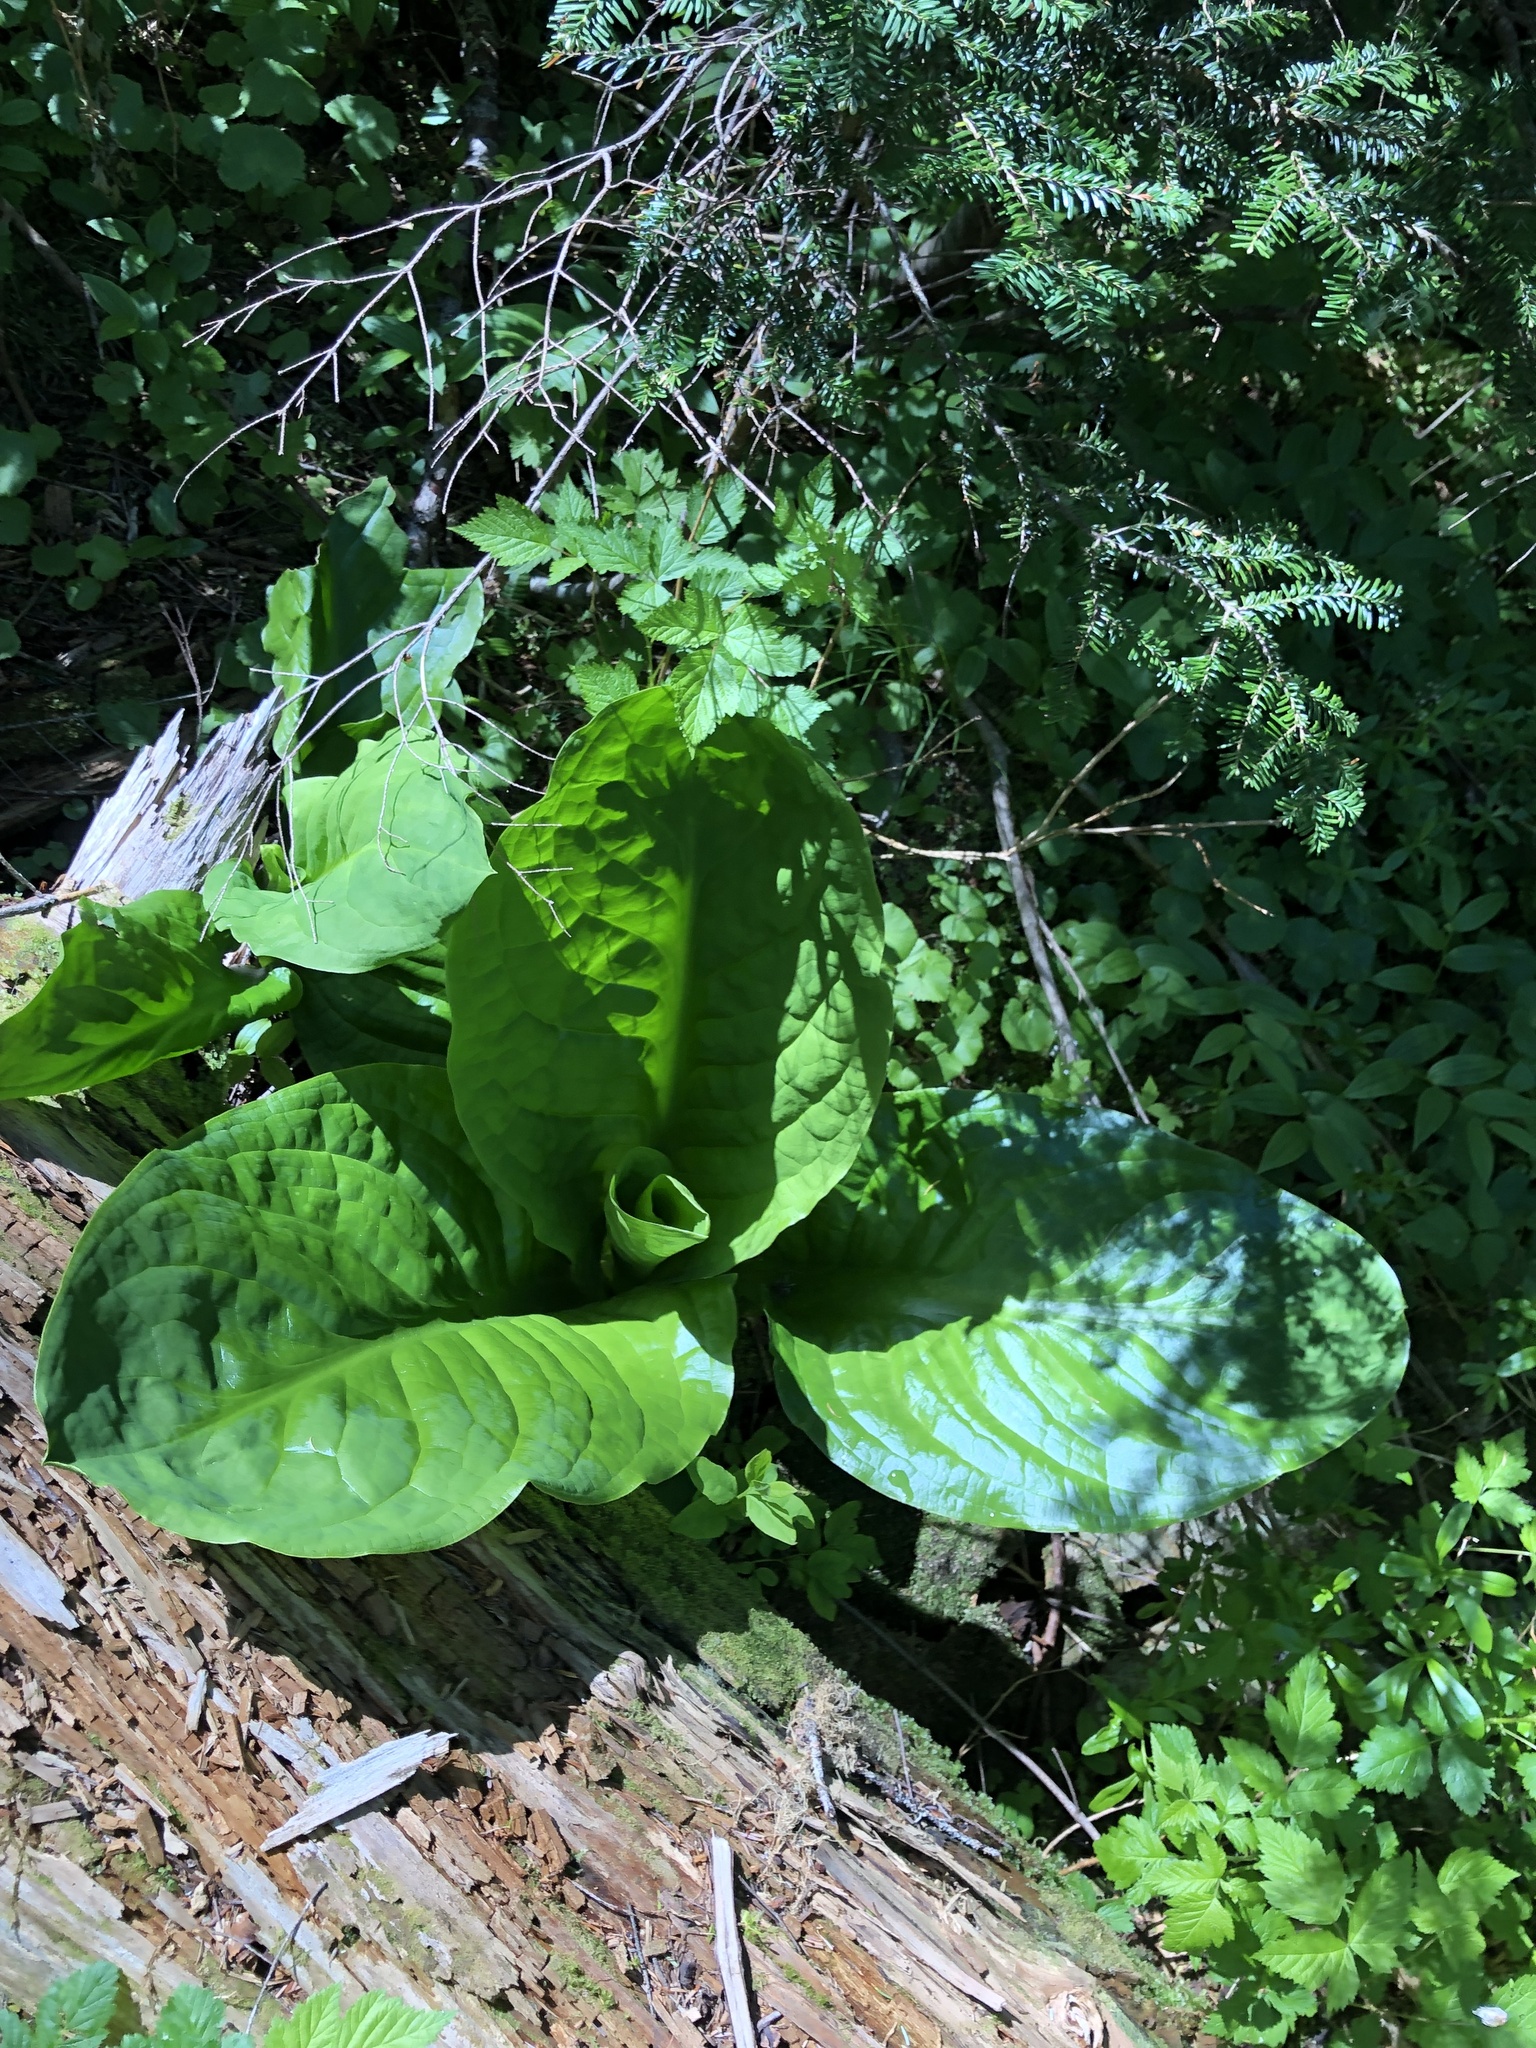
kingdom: Plantae
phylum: Tracheophyta
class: Liliopsida
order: Alismatales
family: Araceae
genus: Lysichiton
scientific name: Lysichiton americanus
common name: American skunk cabbage
